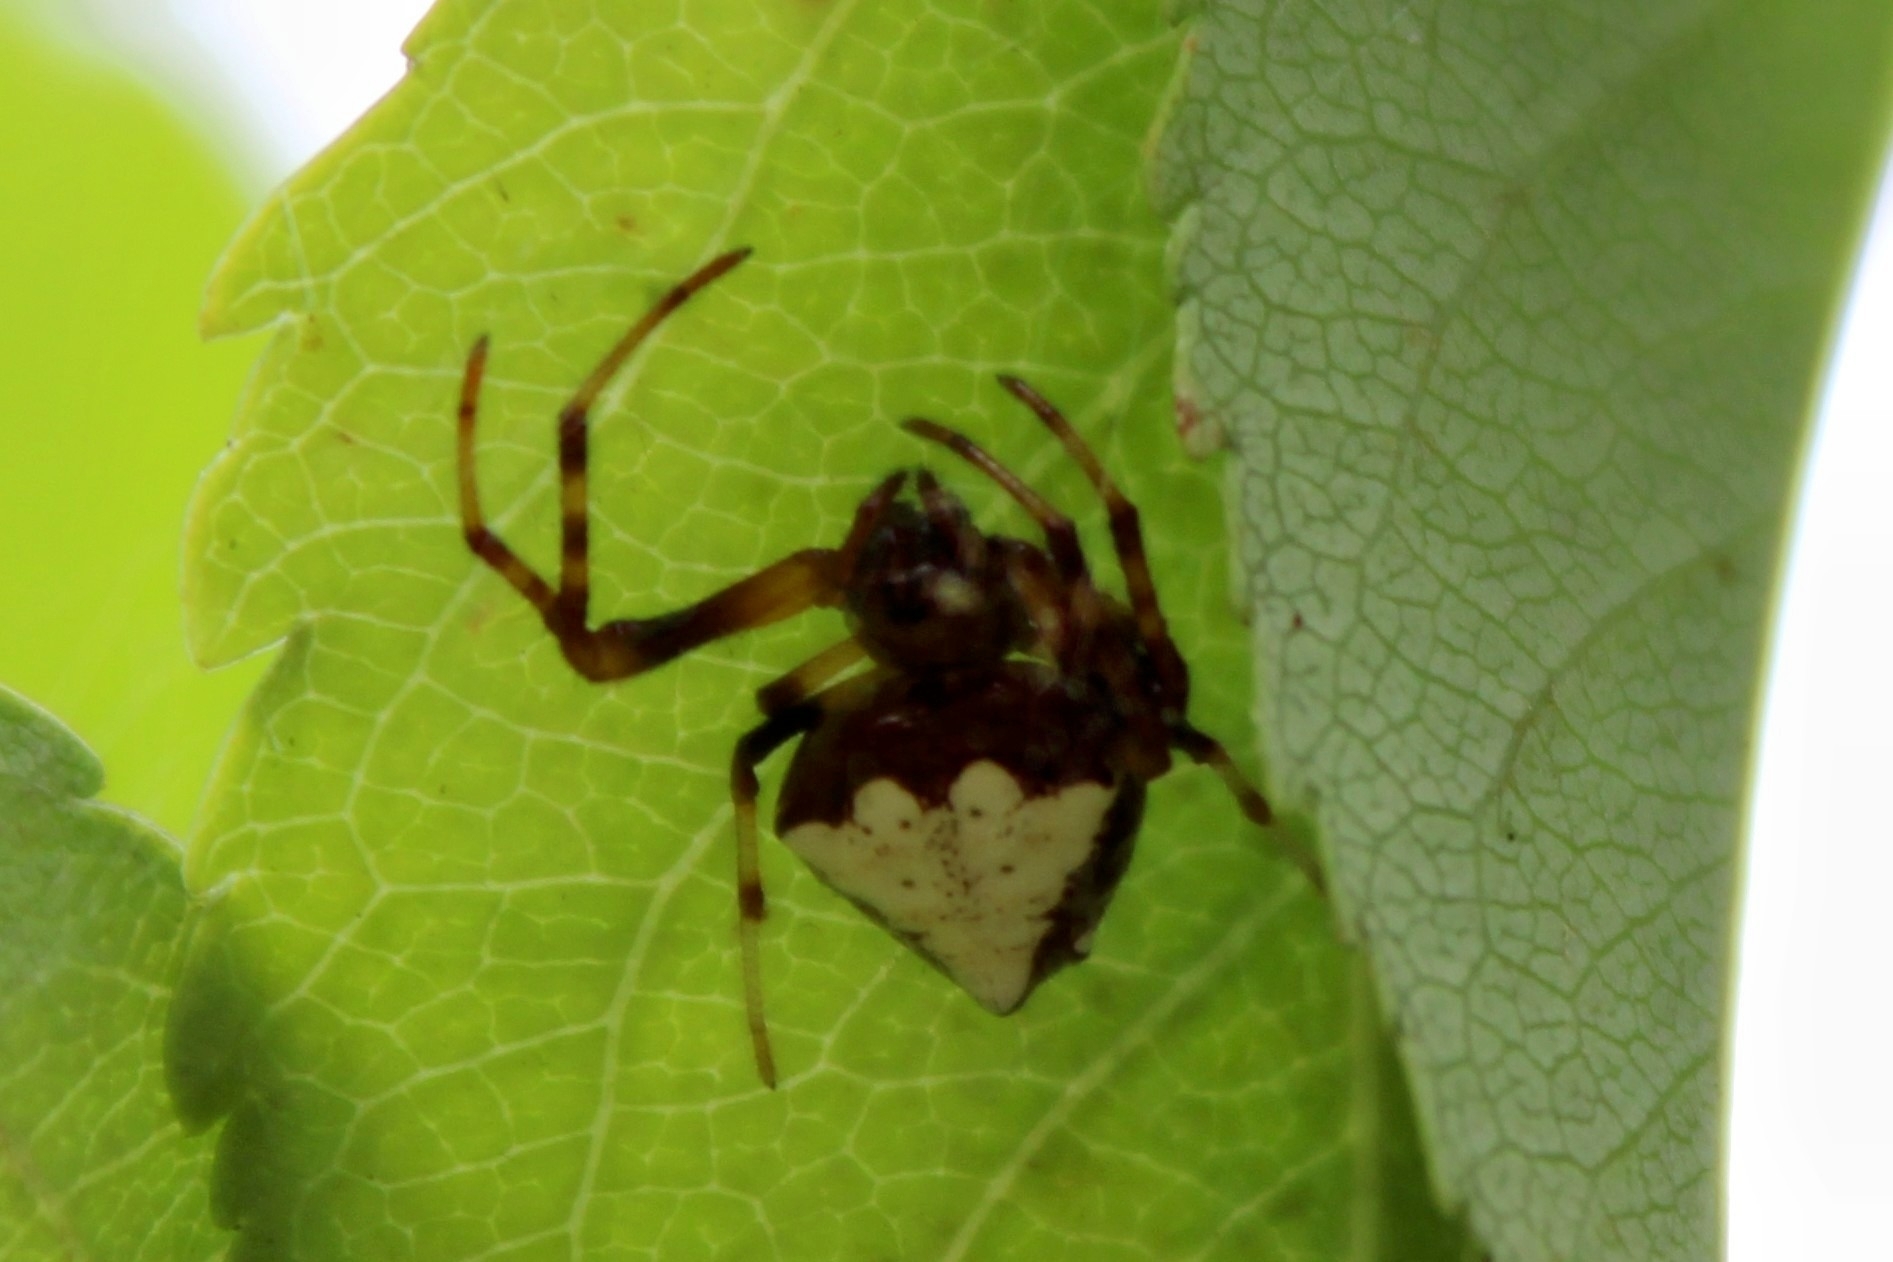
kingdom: Animalia
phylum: Arthropoda
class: Arachnida
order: Araneae
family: Araneidae
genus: Verrucosa
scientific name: Verrucosa arenata
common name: Orb weavers
